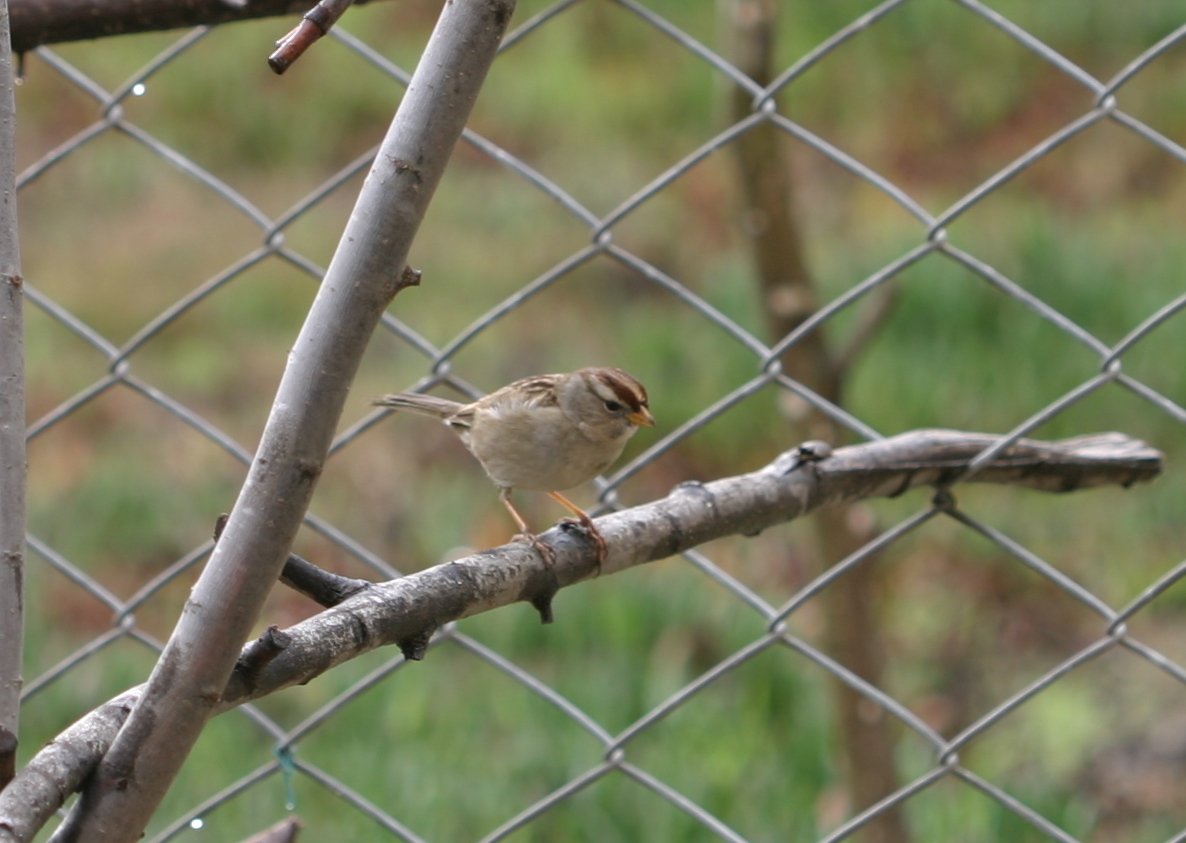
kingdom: Animalia
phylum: Chordata
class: Aves
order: Passeriformes
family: Passerellidae
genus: Zonotrichia
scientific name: Zonotrichia leucophrys
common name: White-crowned sparrow
